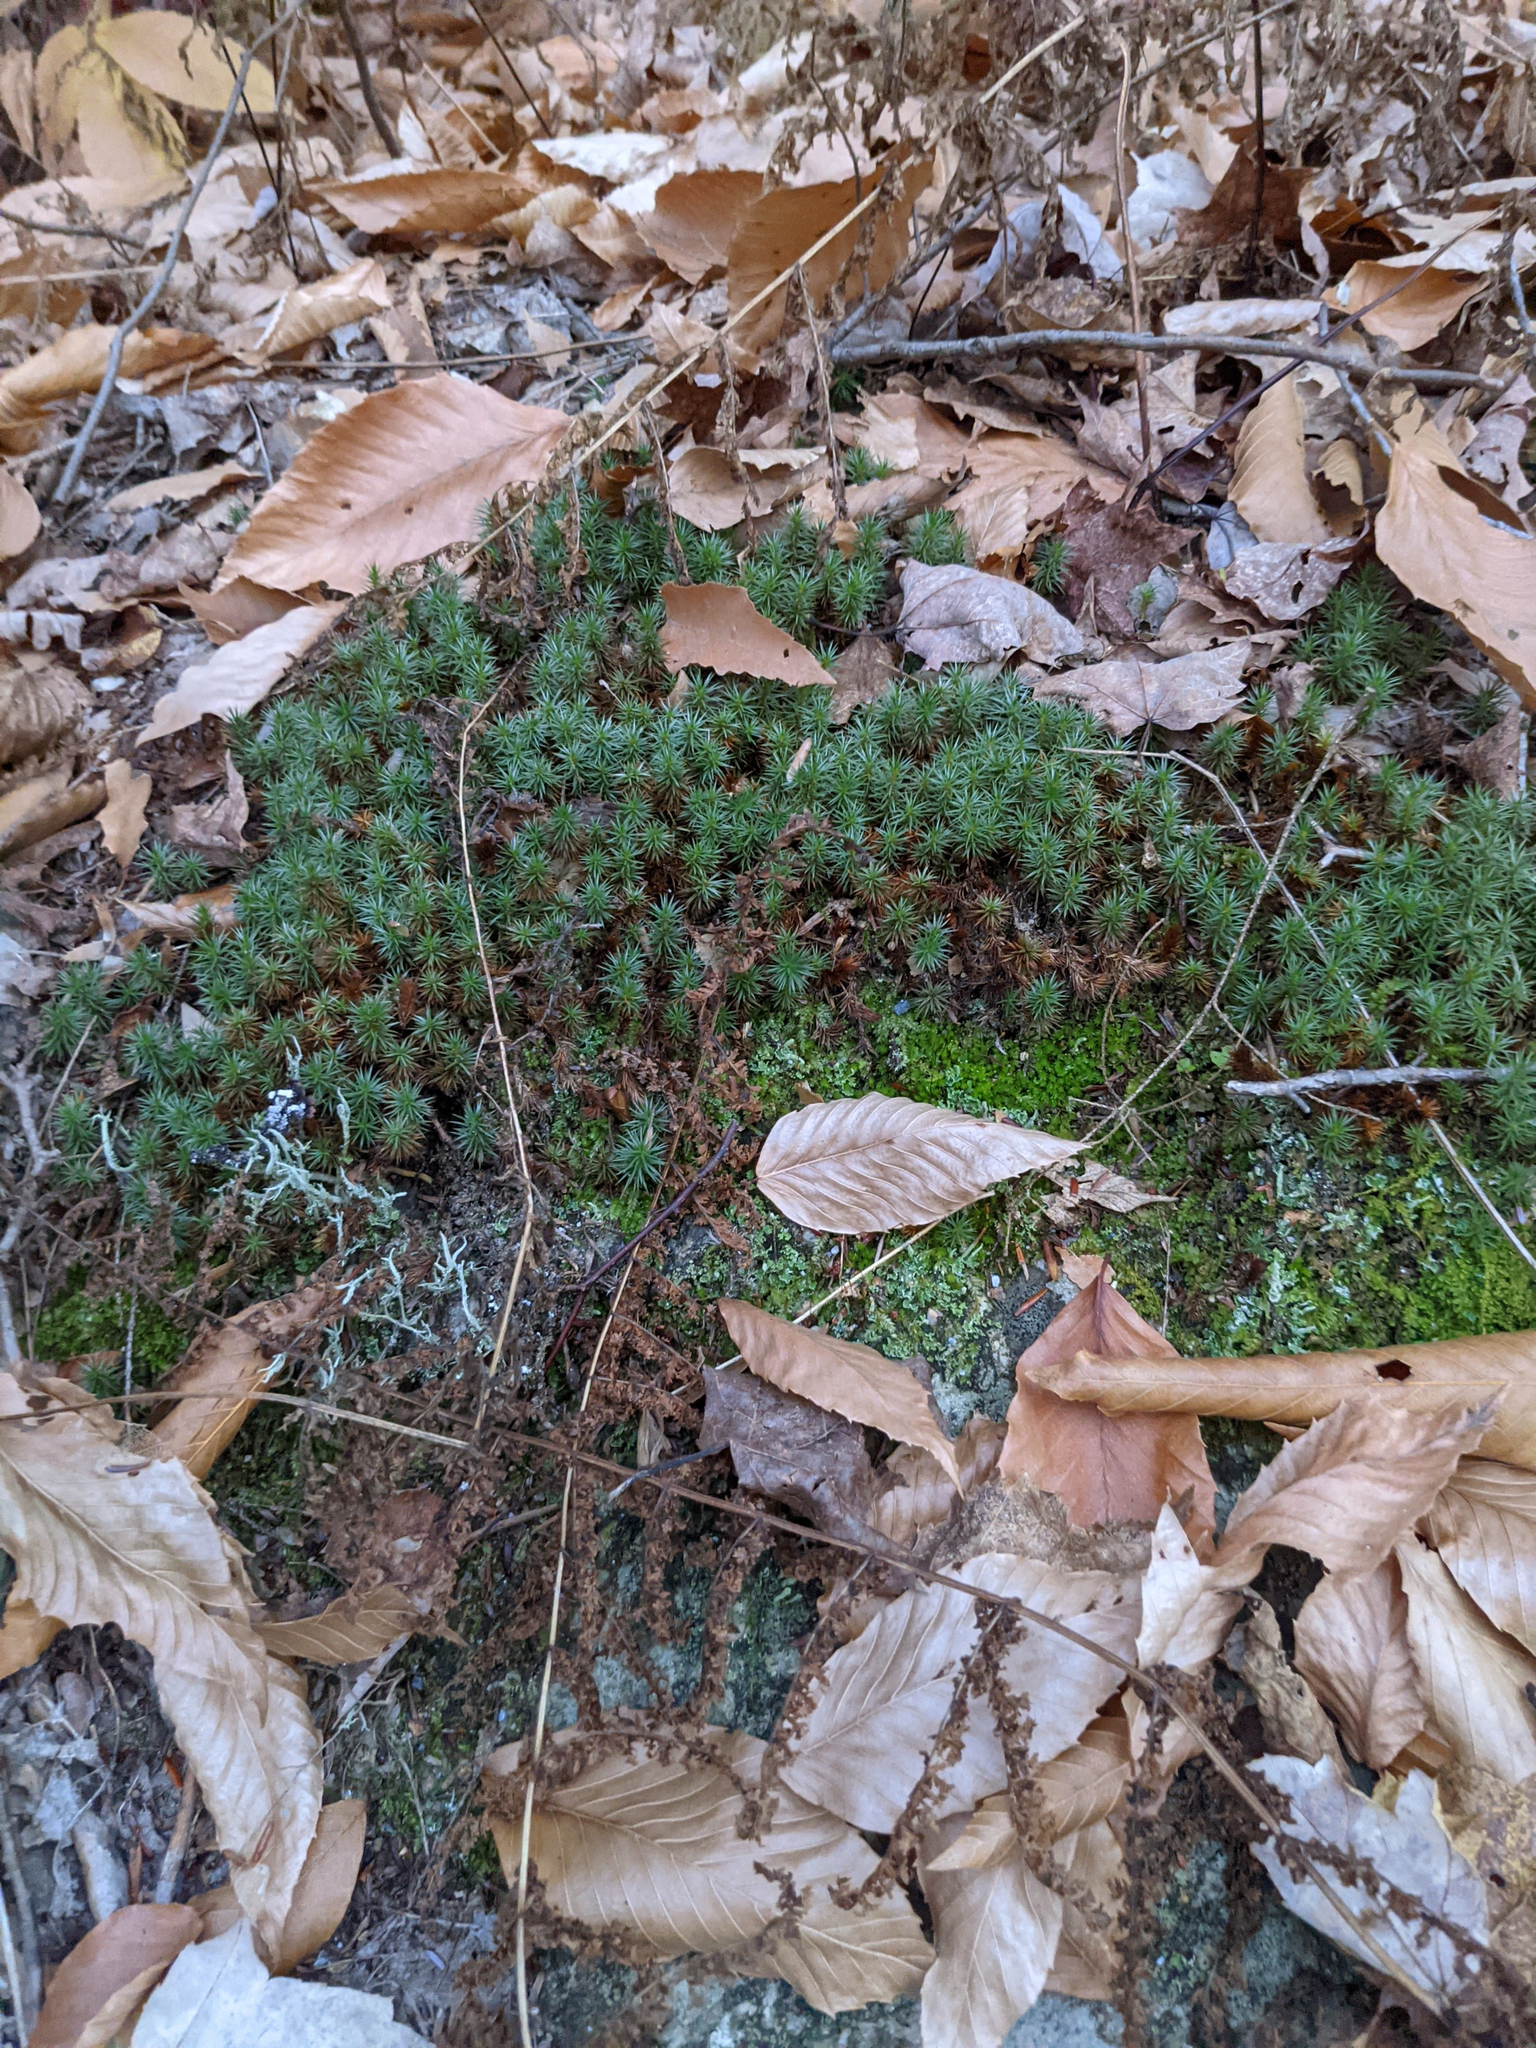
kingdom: Plantae
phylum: Tracheophyta
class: Magnoliopsida
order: Fagales
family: Fagaceae
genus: Fagus
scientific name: Fagus grandifolia
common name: American beech
